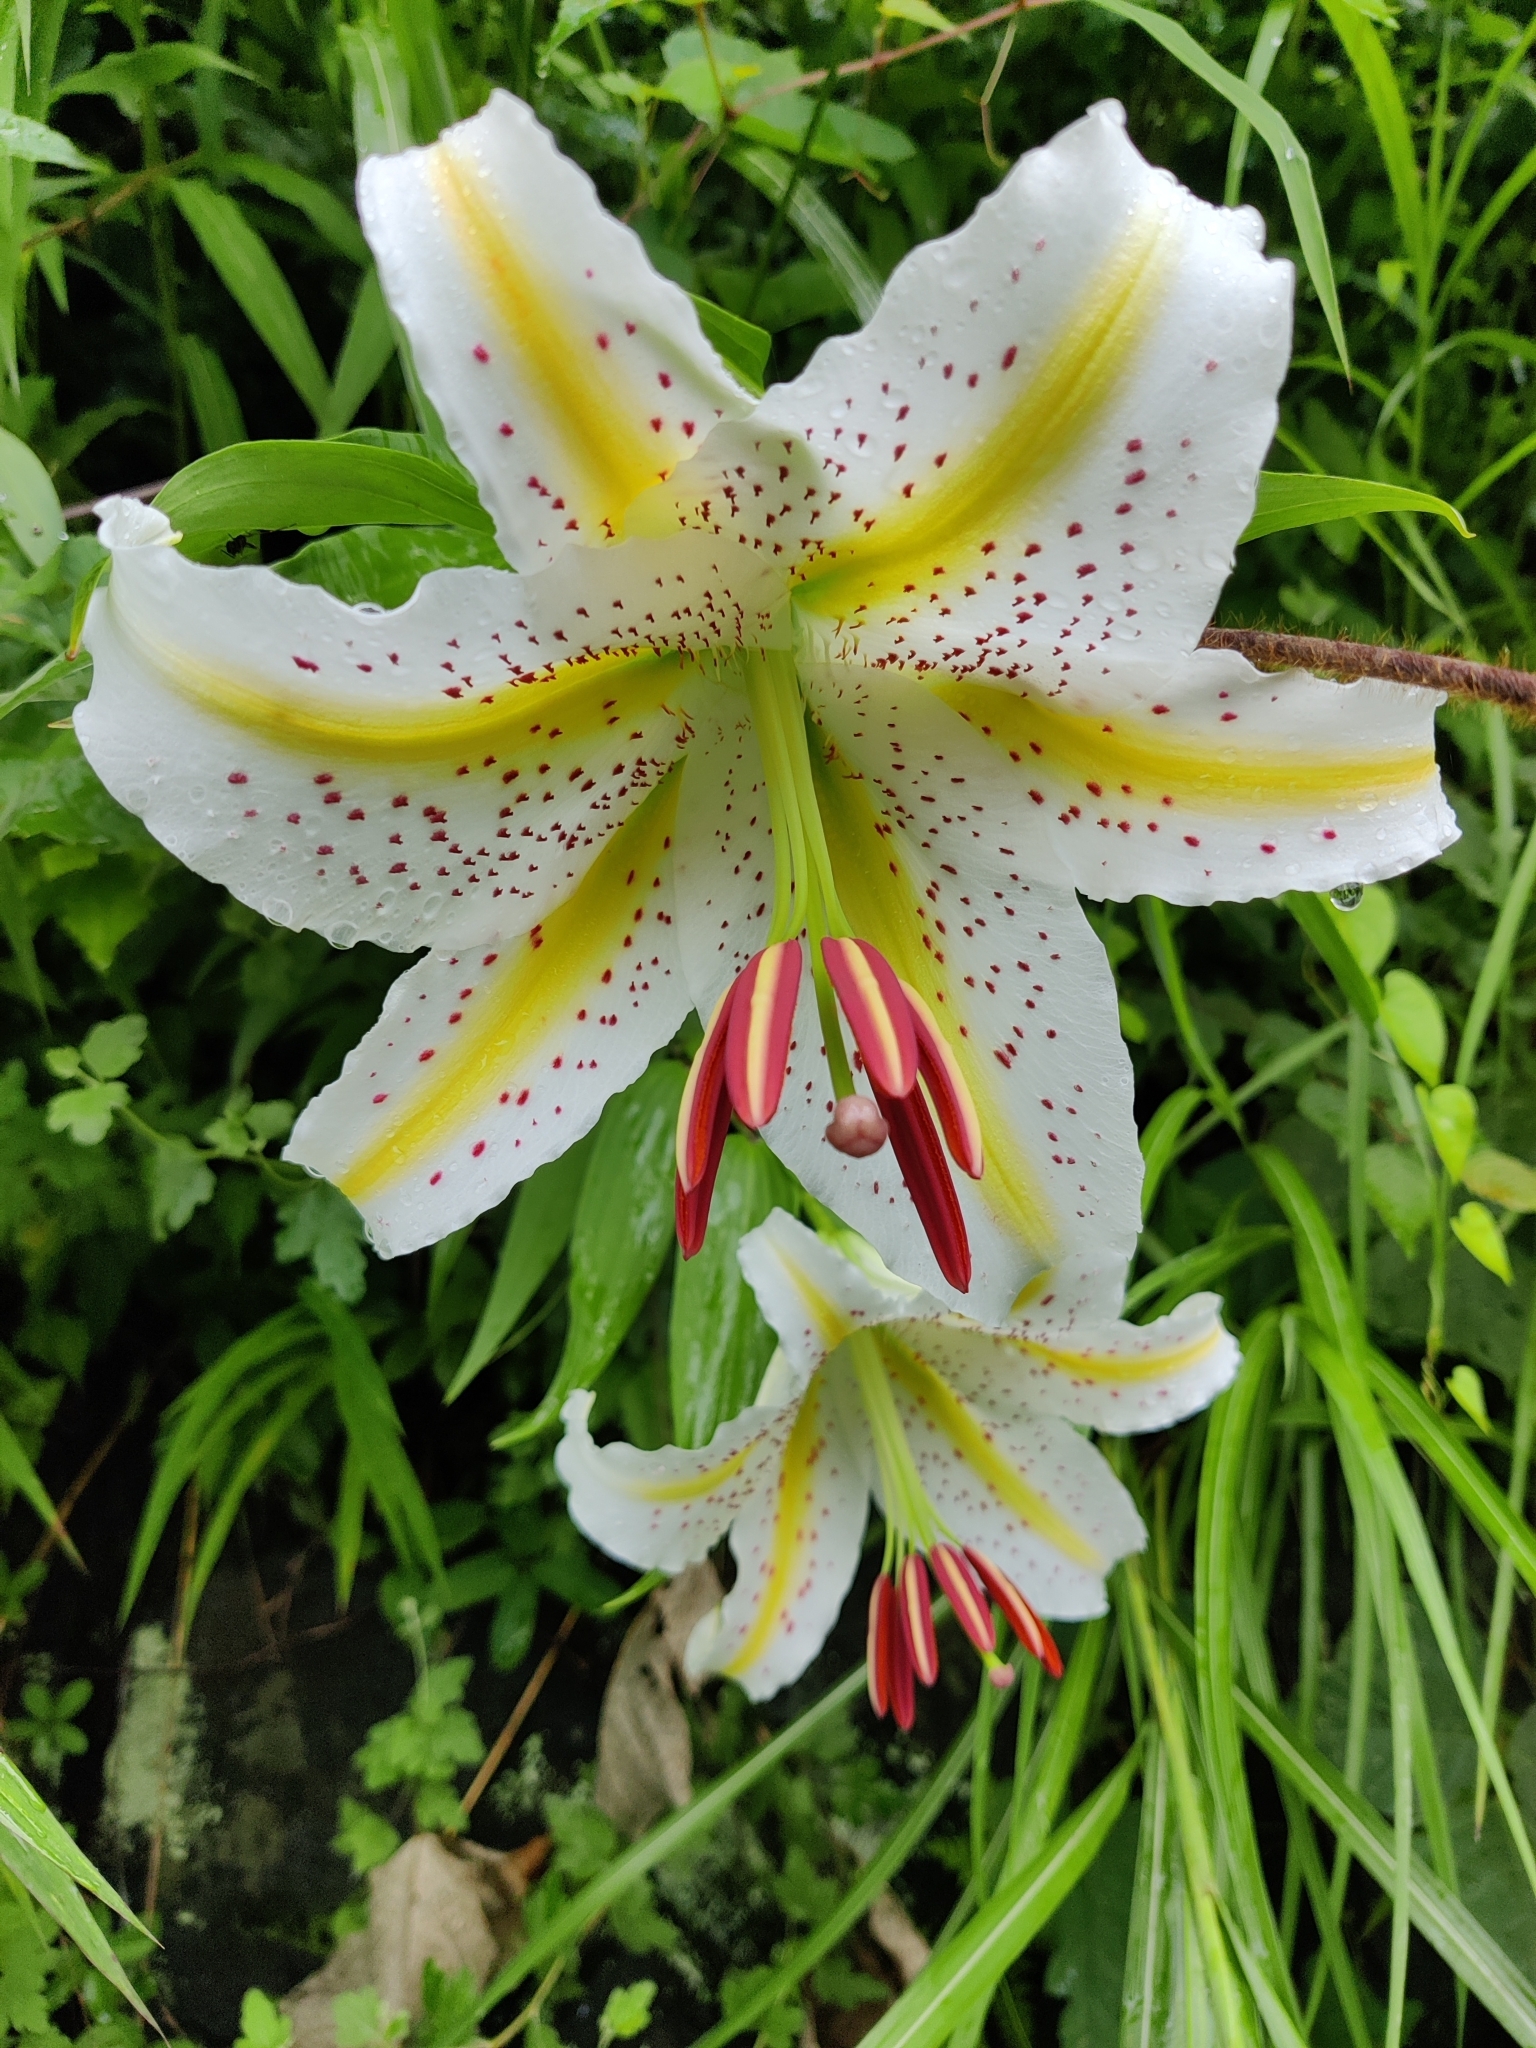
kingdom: Plantae
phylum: Tracheophyta
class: Liliopsida
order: Liliales
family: Liliaceae
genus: Lilium
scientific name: Lilium auratum
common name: Golden-ray lily
